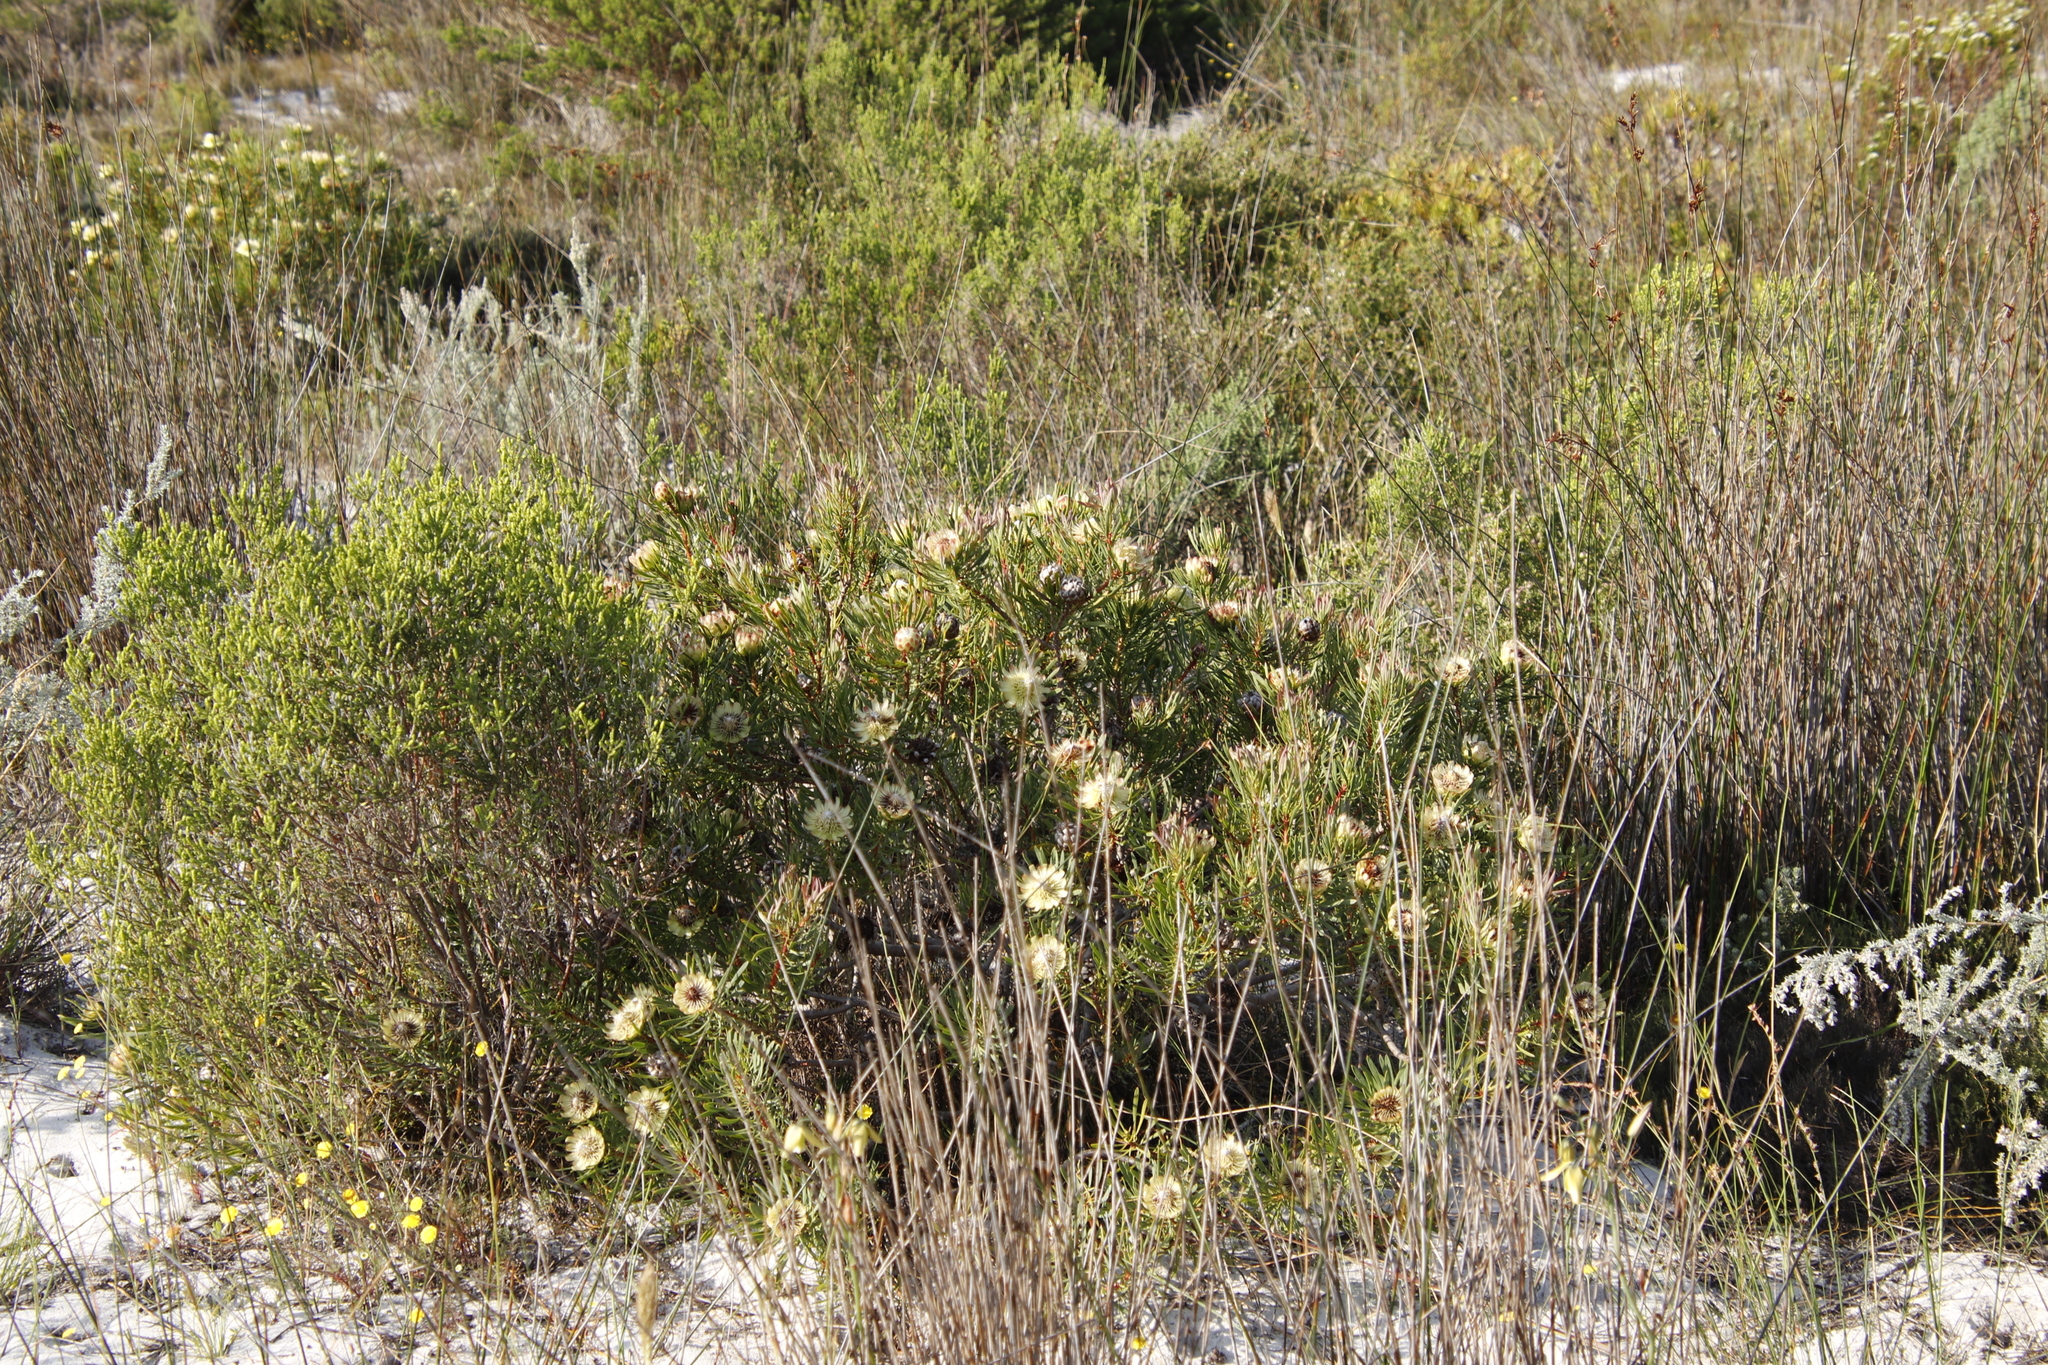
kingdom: Plantae
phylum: Tracheophyta
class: Magnoliopsida
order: Proteales
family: Proteaceae
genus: Protea
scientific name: Protea scolymocephala
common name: Thistle sugarbush
